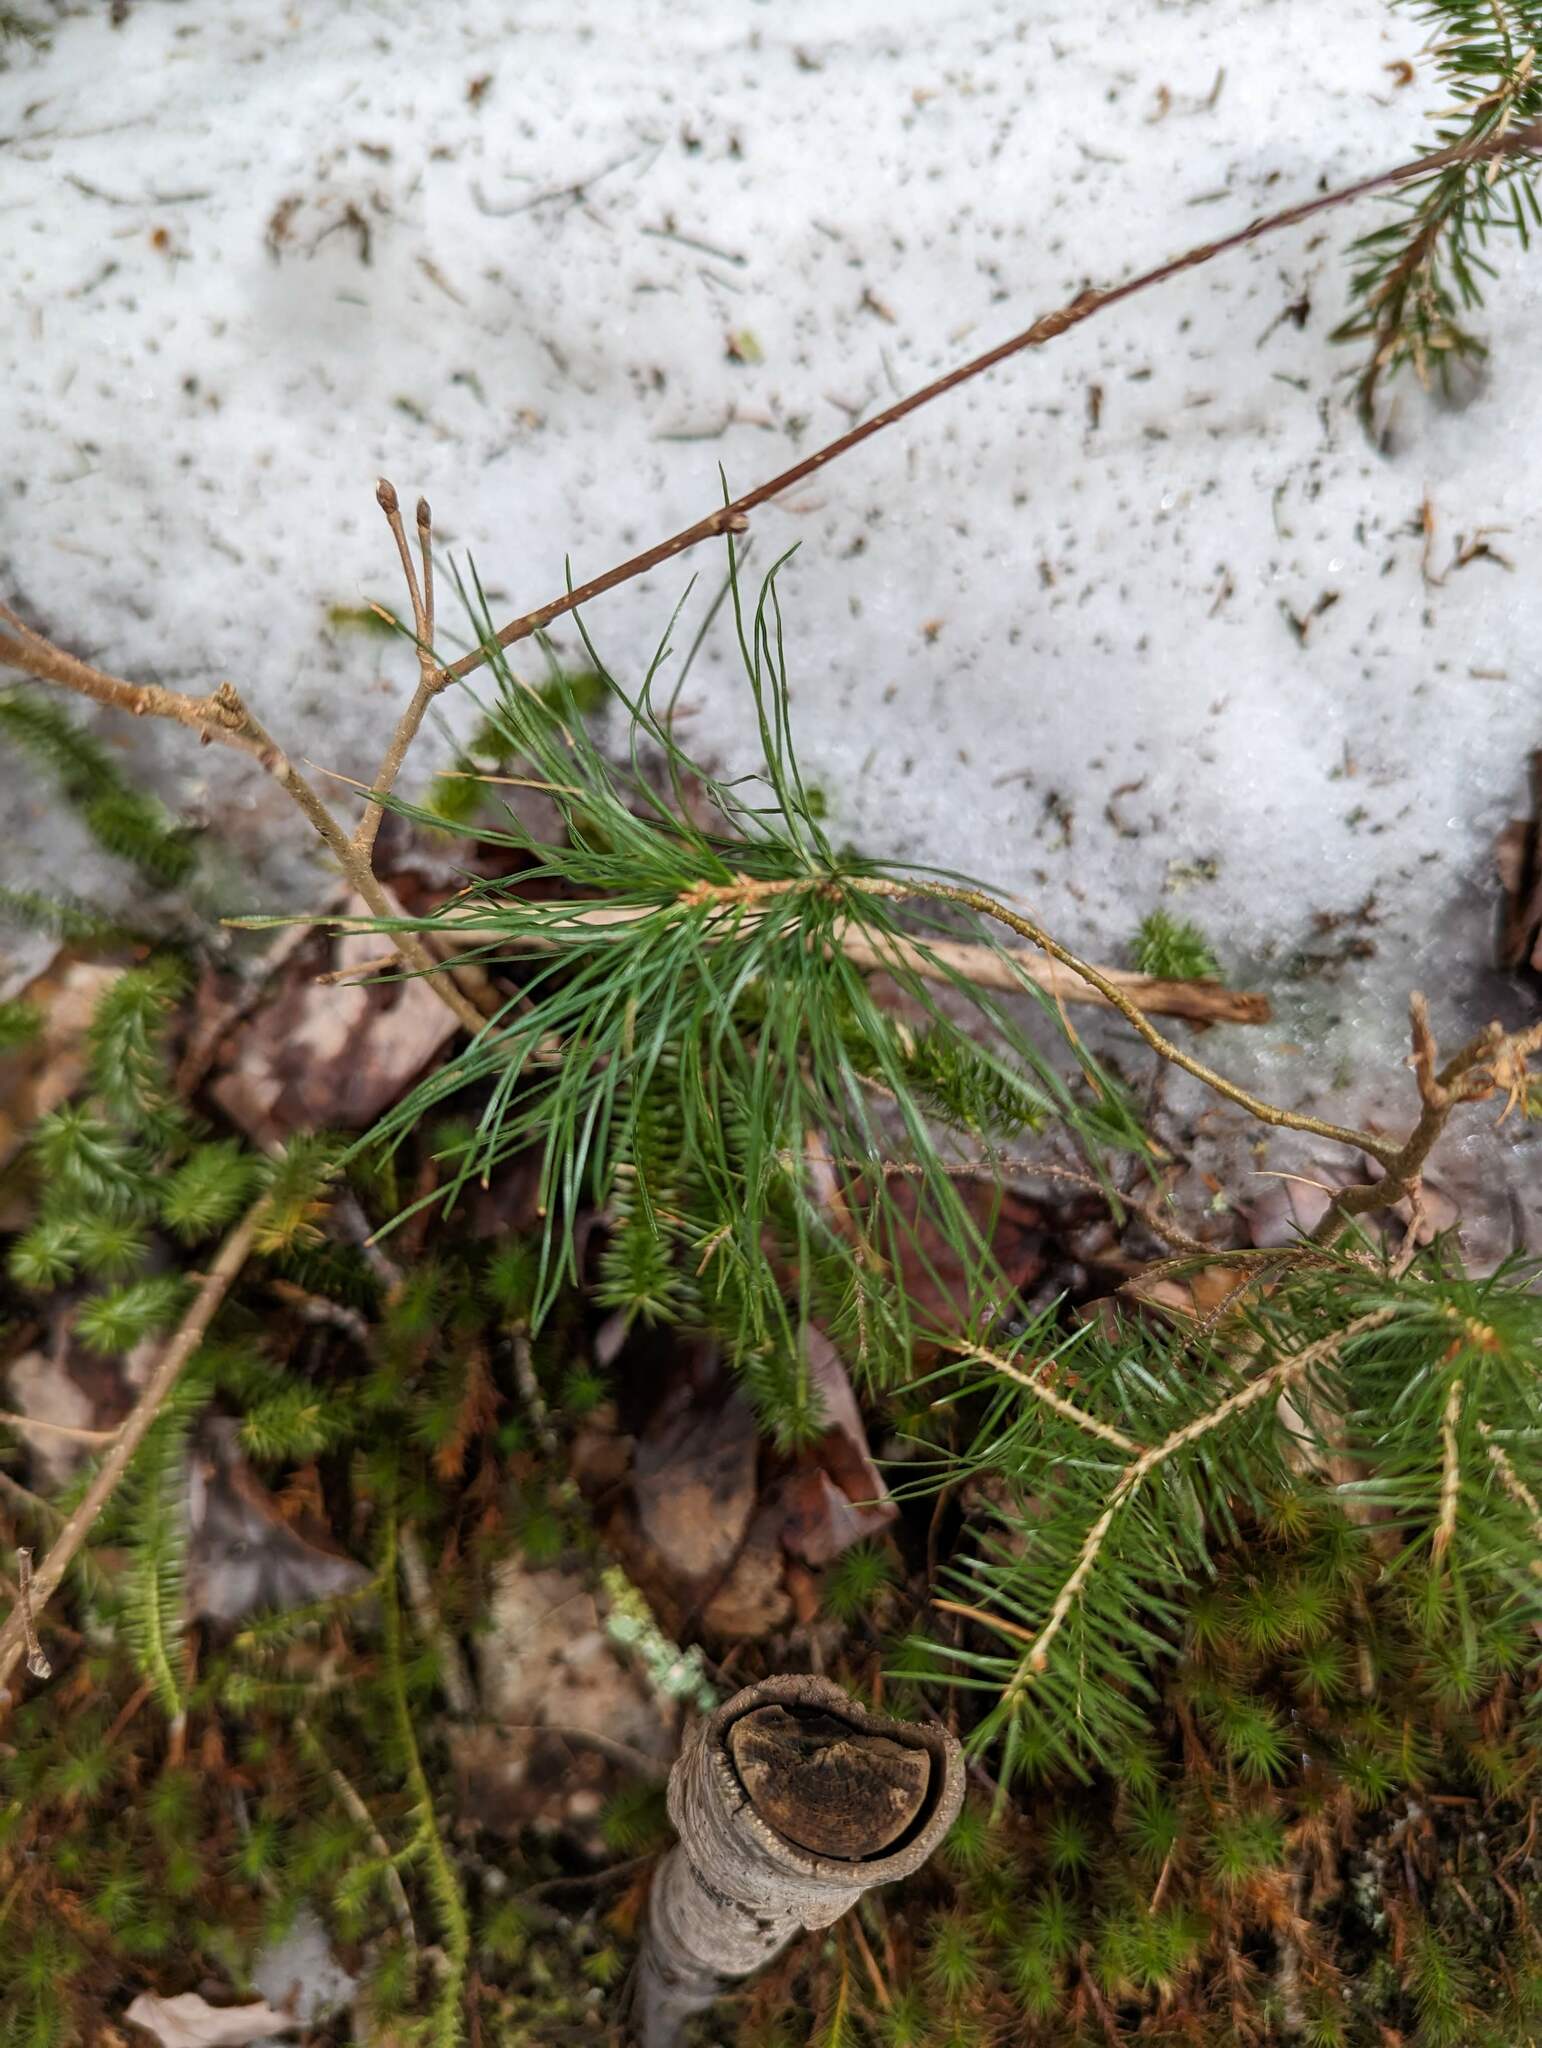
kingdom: Plantae
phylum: Tracheophyta
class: Pinopsida
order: Pinales
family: Pinaceae
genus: Pinus
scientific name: Pinus strobus
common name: Weymouth pine
